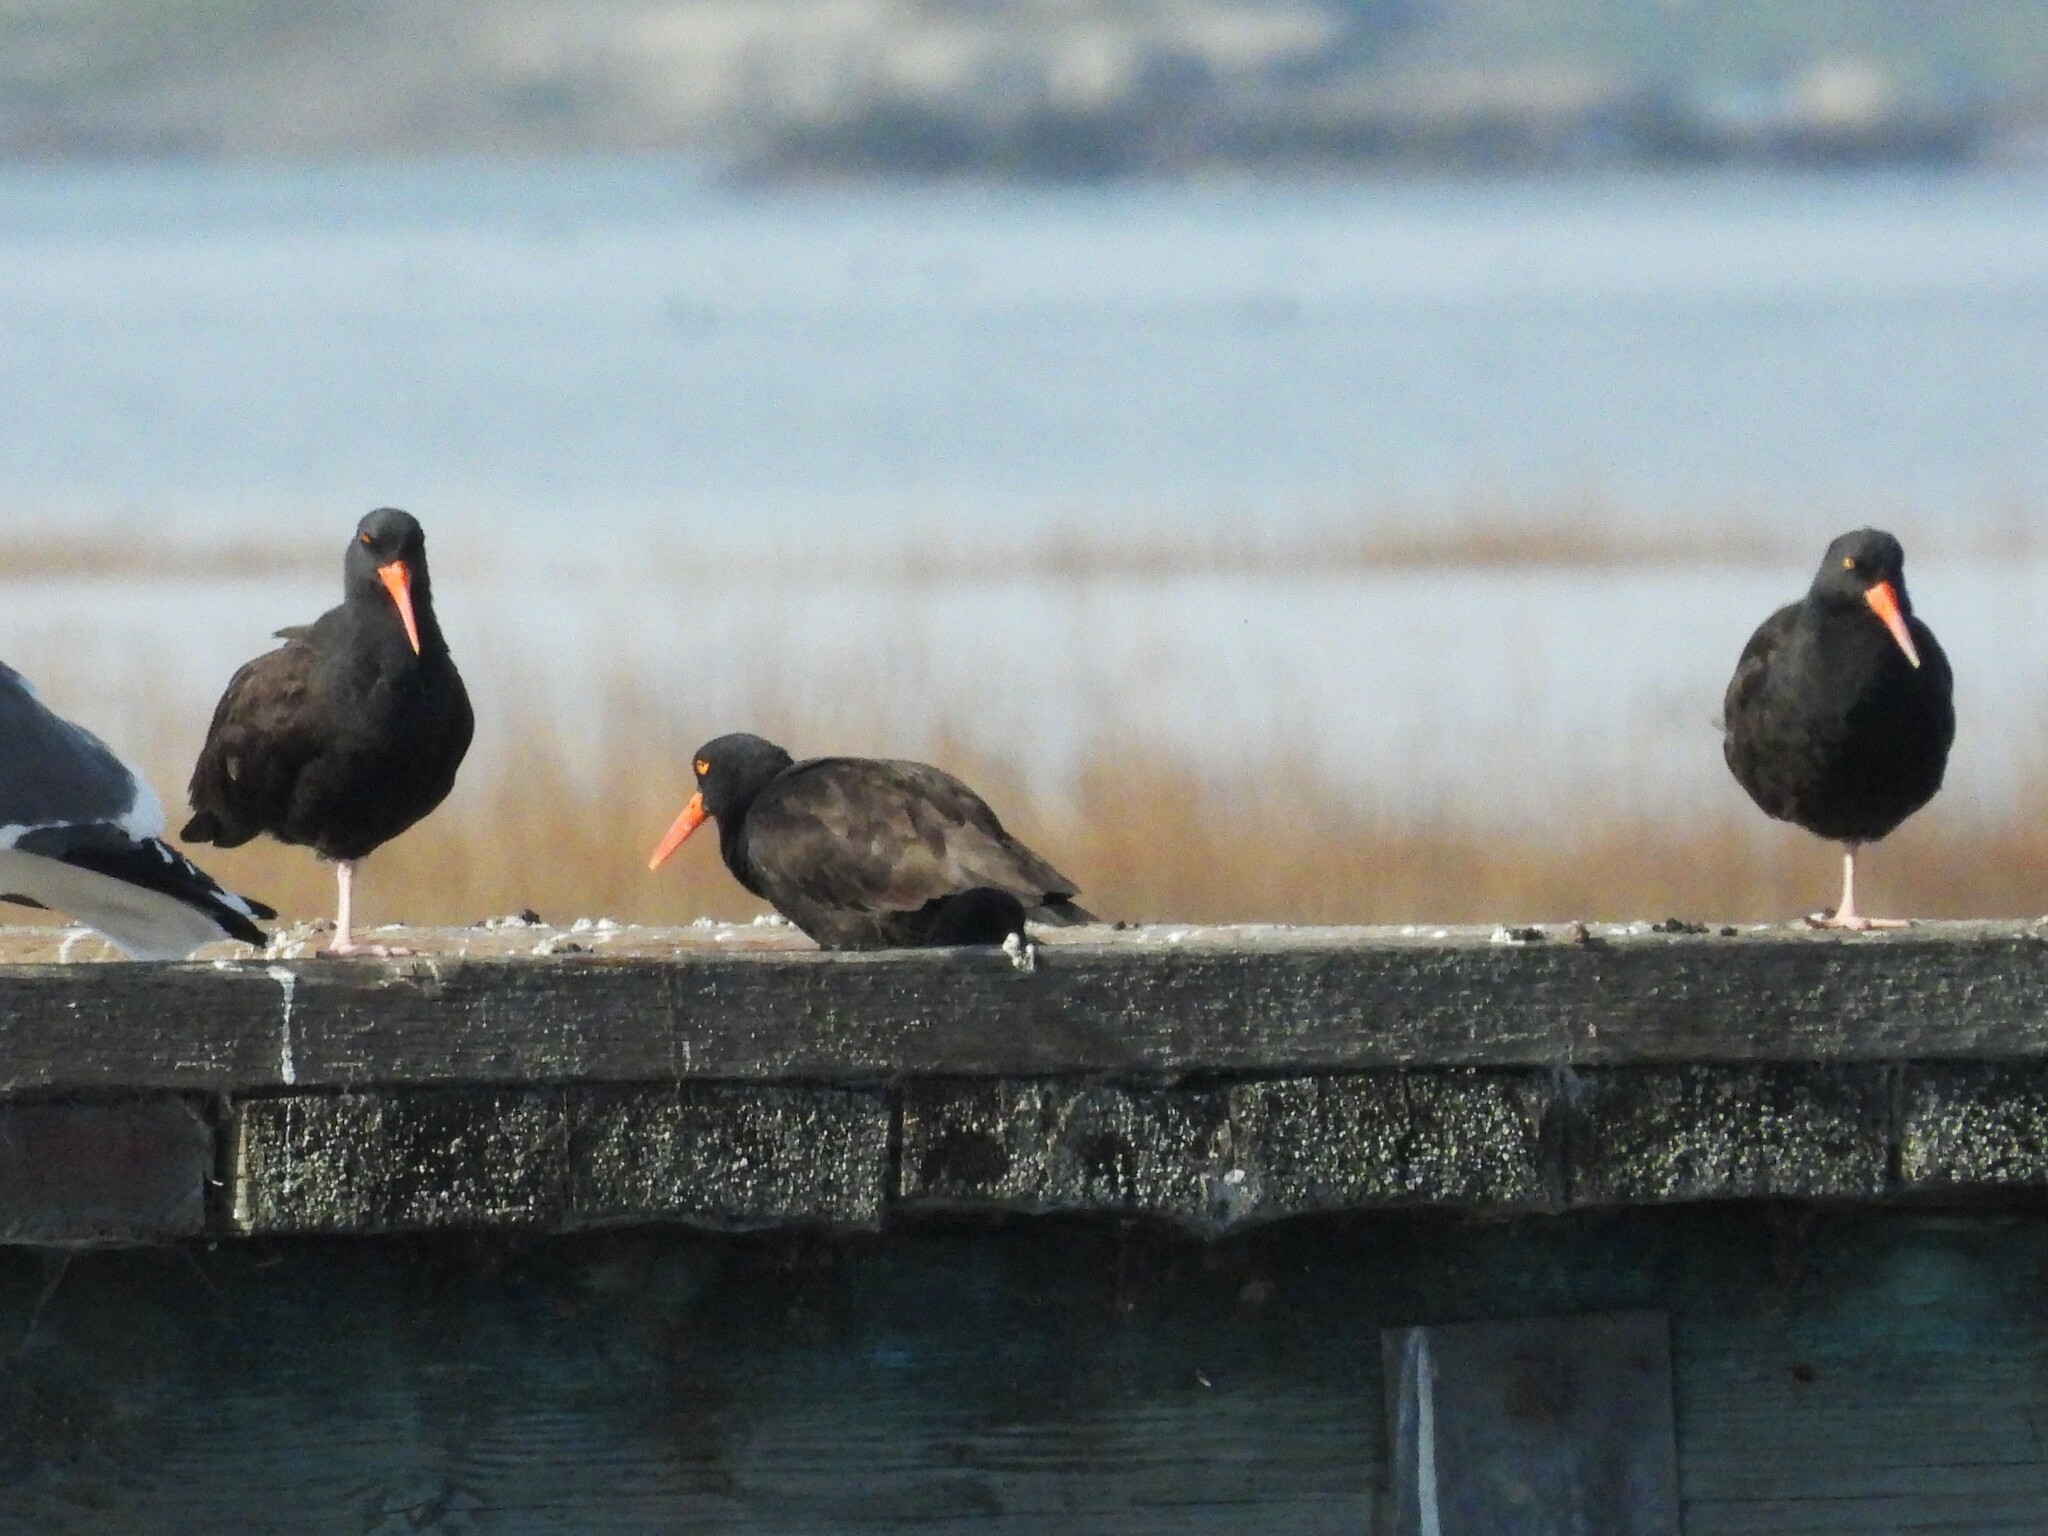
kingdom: Animalia
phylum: Chordata
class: Aves
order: Charadriiformes
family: Haematopodidae
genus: Haematopus
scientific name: Haematopus bachmani
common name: Black oystercatcher
